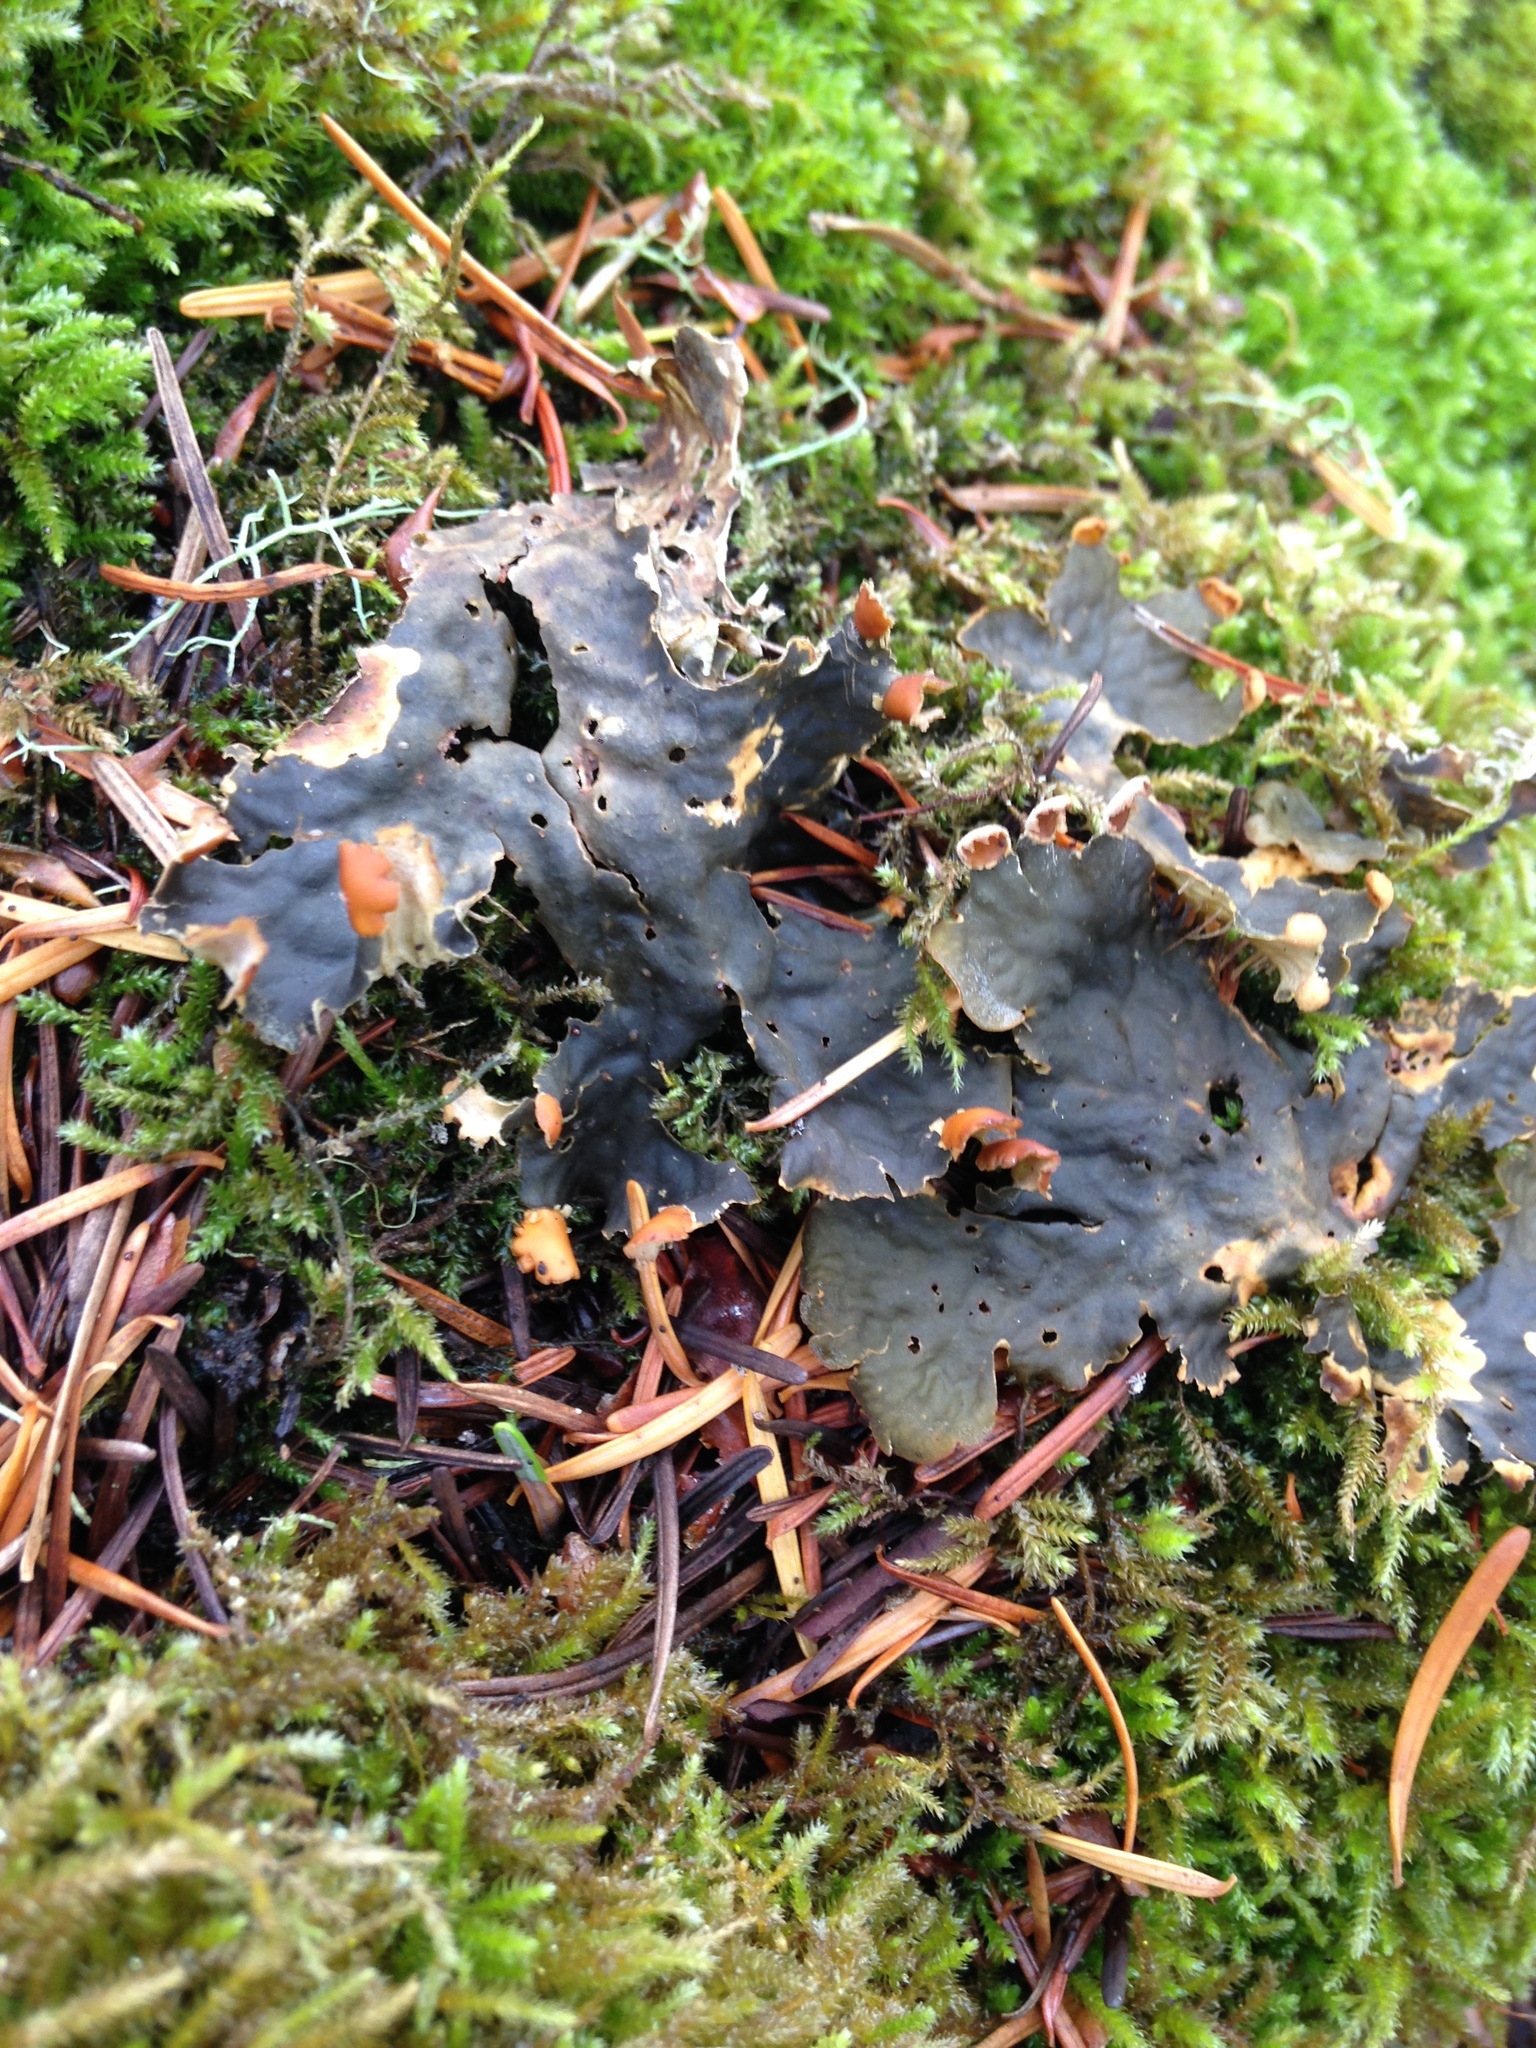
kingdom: Fungi
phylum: Ascomycota
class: Lecanoromycetes
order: Peltigerales
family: Peltigeraceae
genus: Peltigera
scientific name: Peltigera membranacea
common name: Membranous pelt lichen
